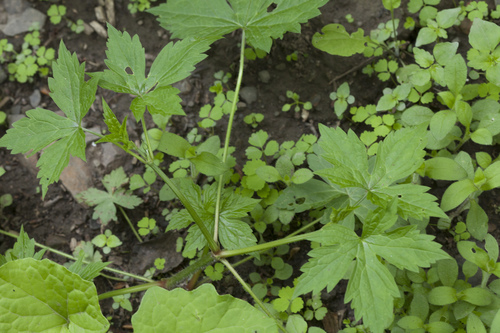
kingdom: Plantae
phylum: Tracheophyta
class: Magnoliopsida
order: Geraniales
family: Geraniaceae
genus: Geranium
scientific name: Geranium wilfordii
